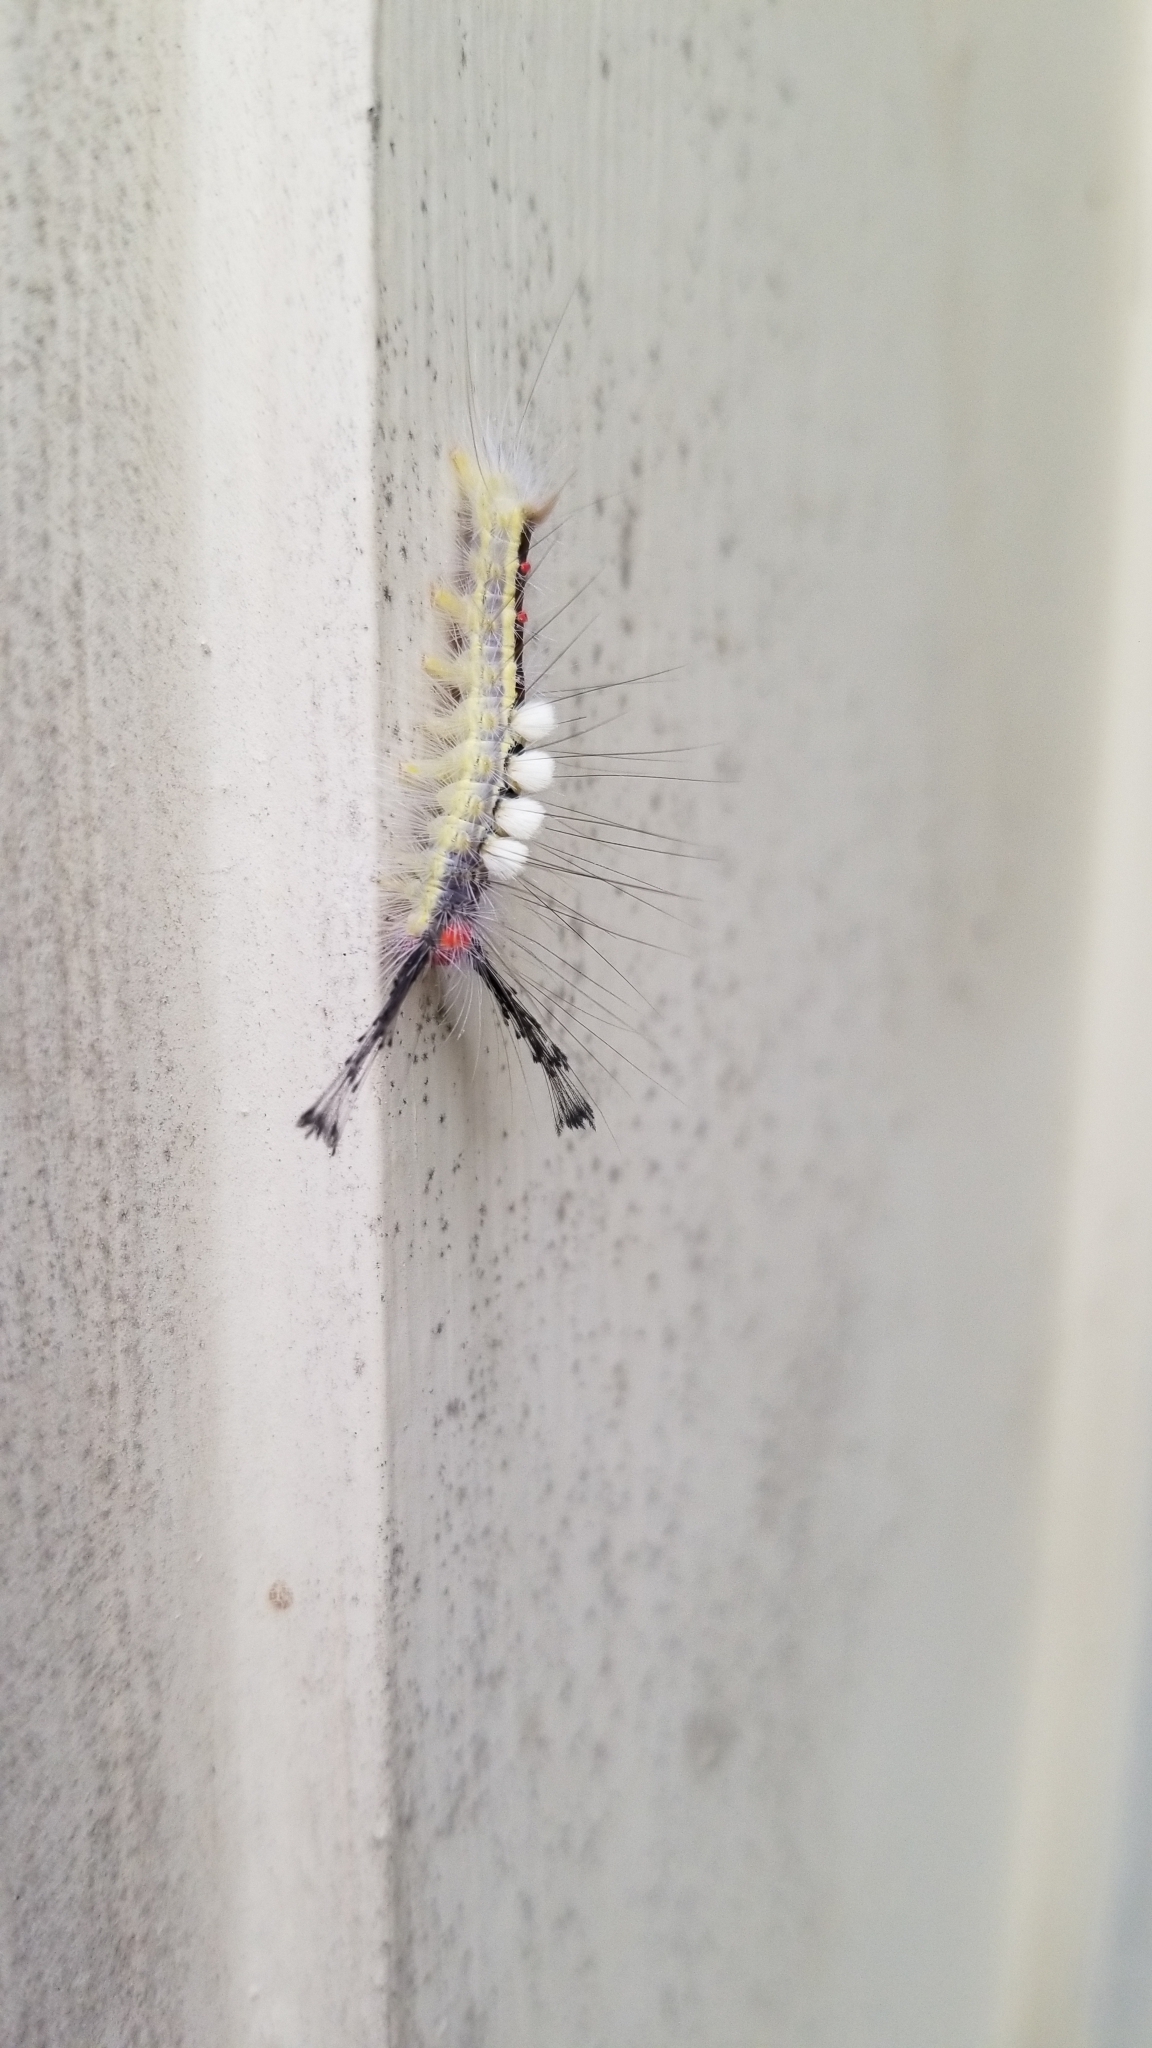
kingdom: Animalia
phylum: Arthropoda
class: Insecta
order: Lepidoptera
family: Erebidae
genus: Orgyia
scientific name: Orgyia leucostigma
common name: White-marked tussock moth
